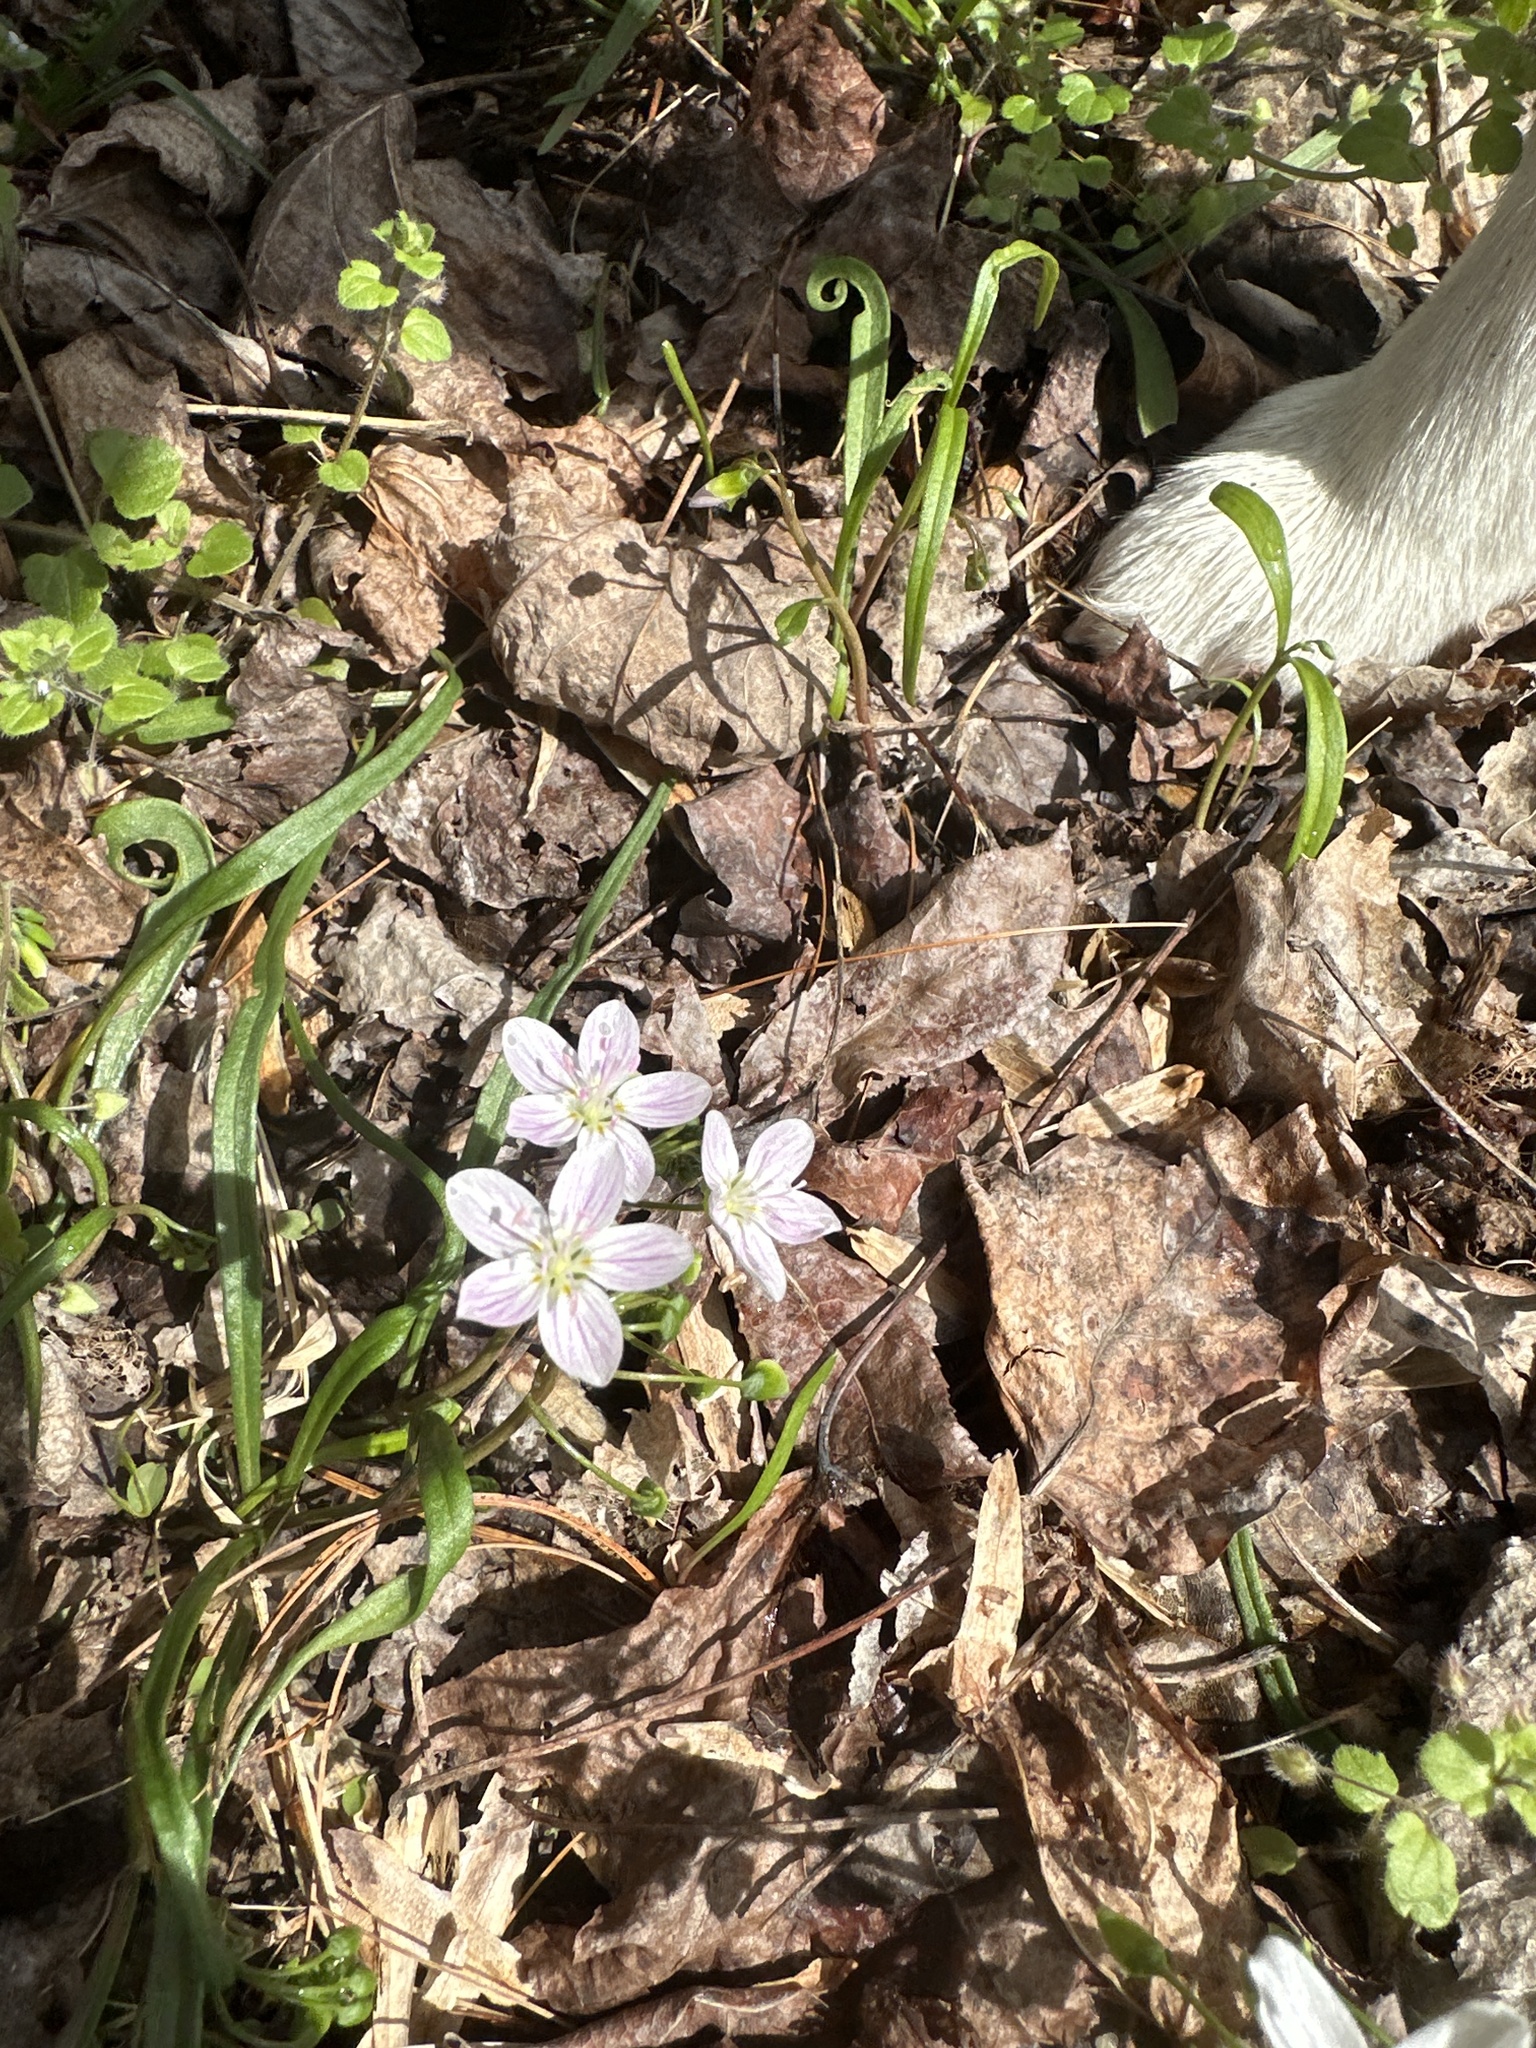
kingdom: Plantae
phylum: Tracheophyta
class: Magnoliopsida
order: Caryophyllales
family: Montiaceae
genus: Claytonia
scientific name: Claytonia virginica
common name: Virginia springbeauty
